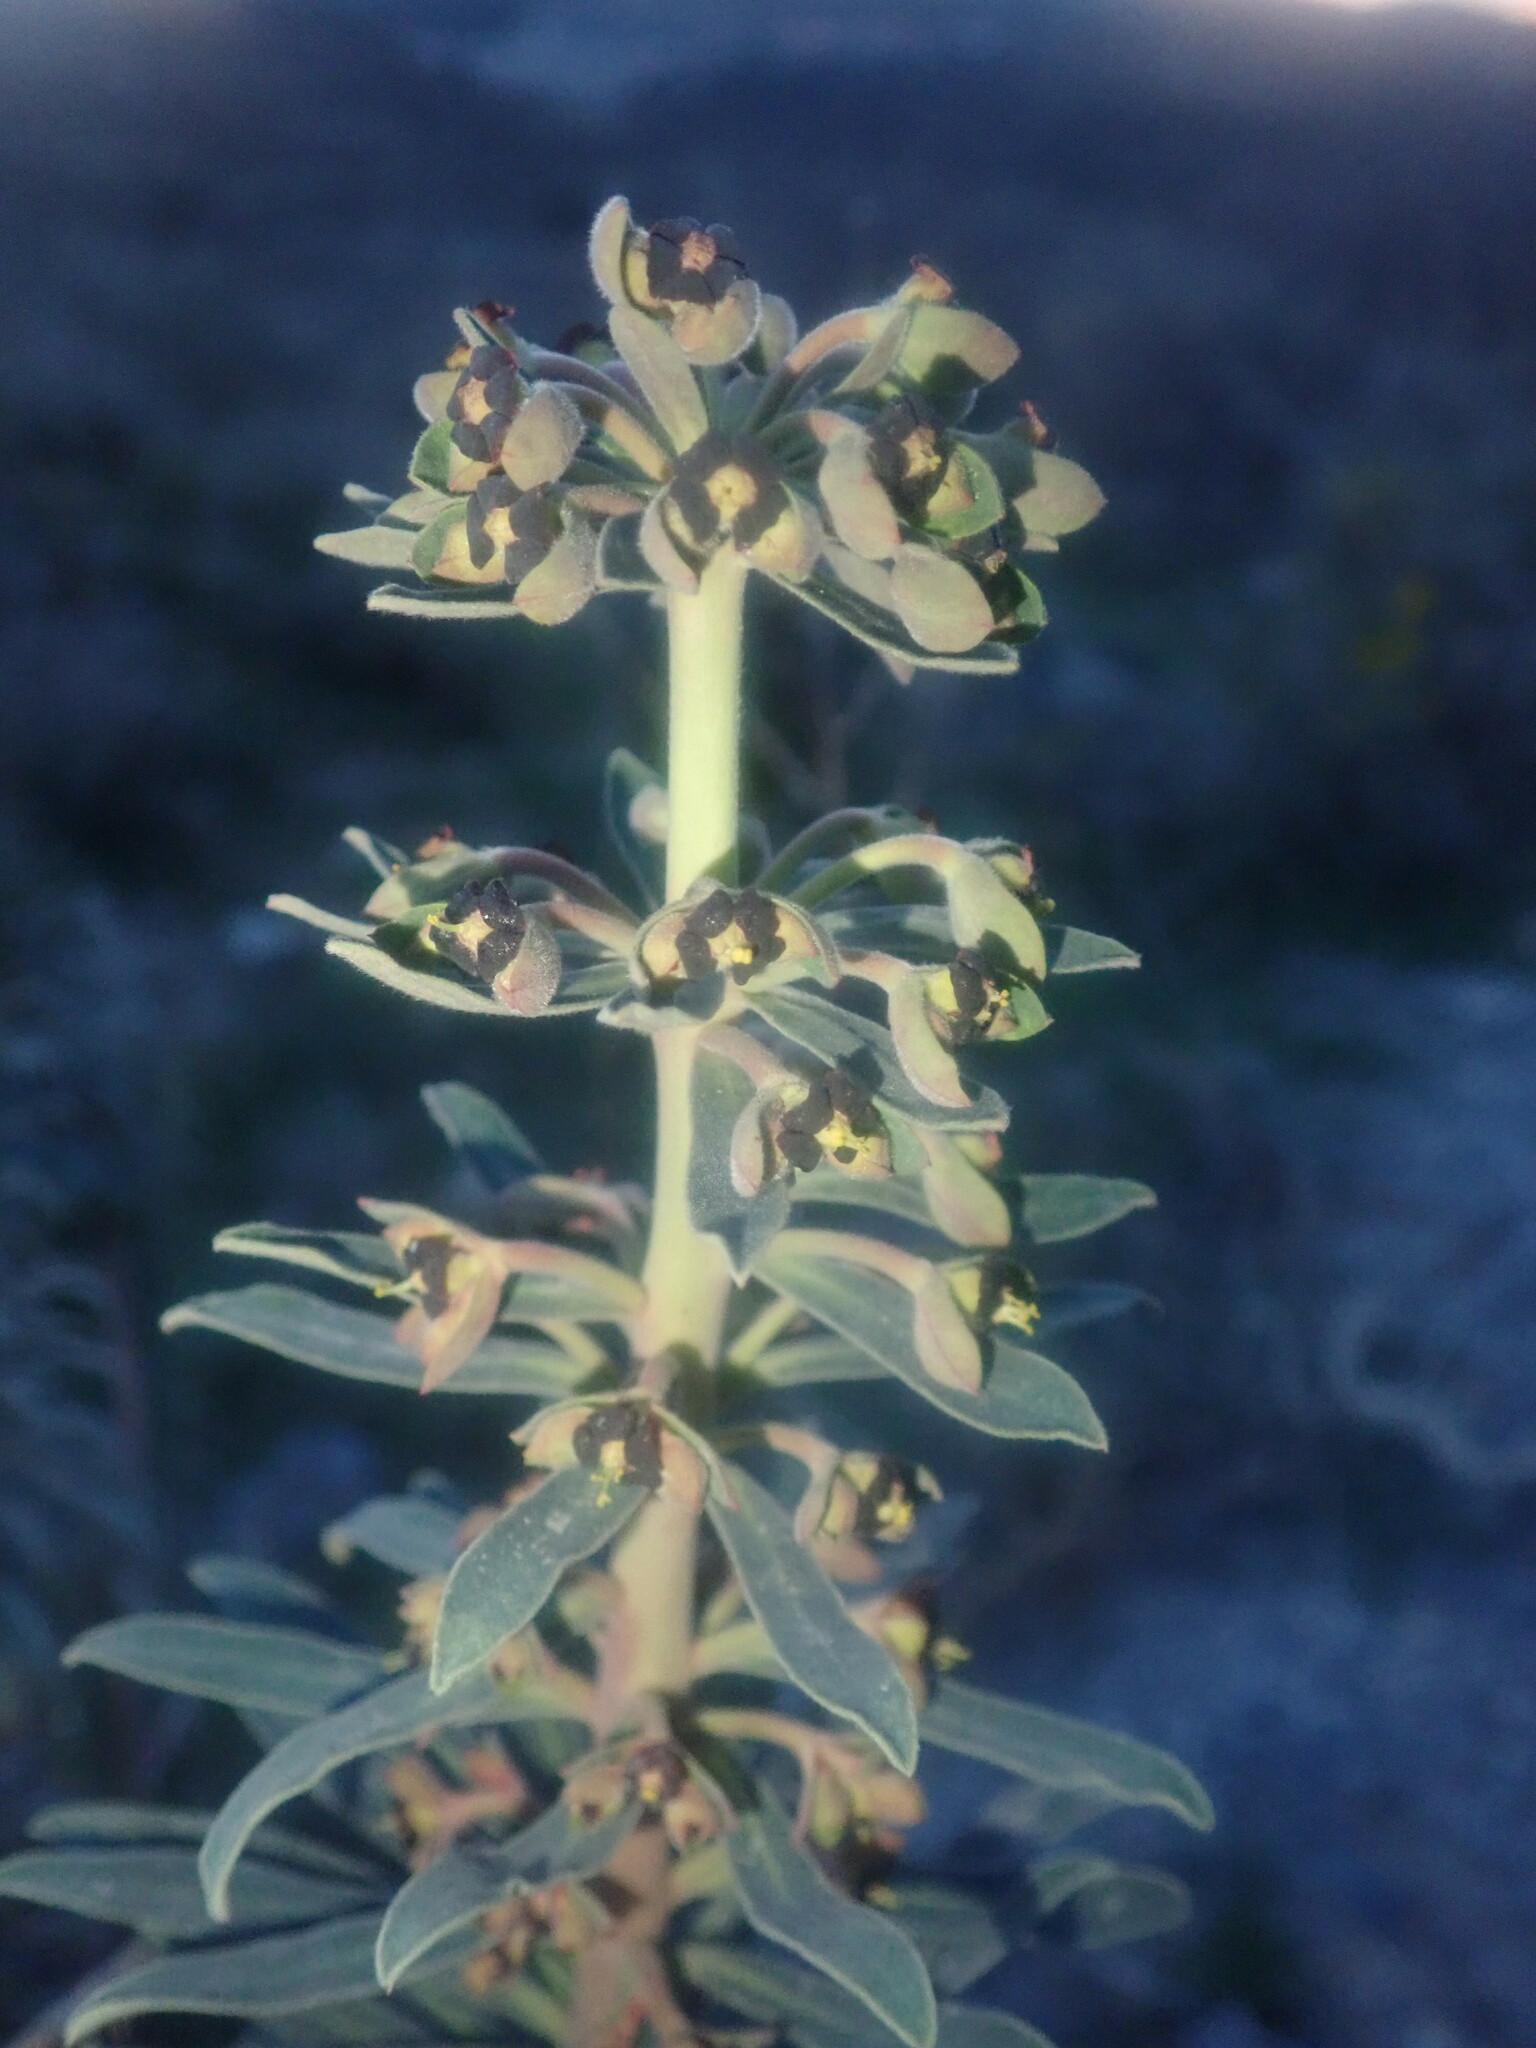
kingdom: Plantae
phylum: Tracheophyta
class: Magnoliopsida
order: Malpighiales
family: Euphorbiaceae
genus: Euphorbia
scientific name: Euphorbia characias
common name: Mediterranean spurge
